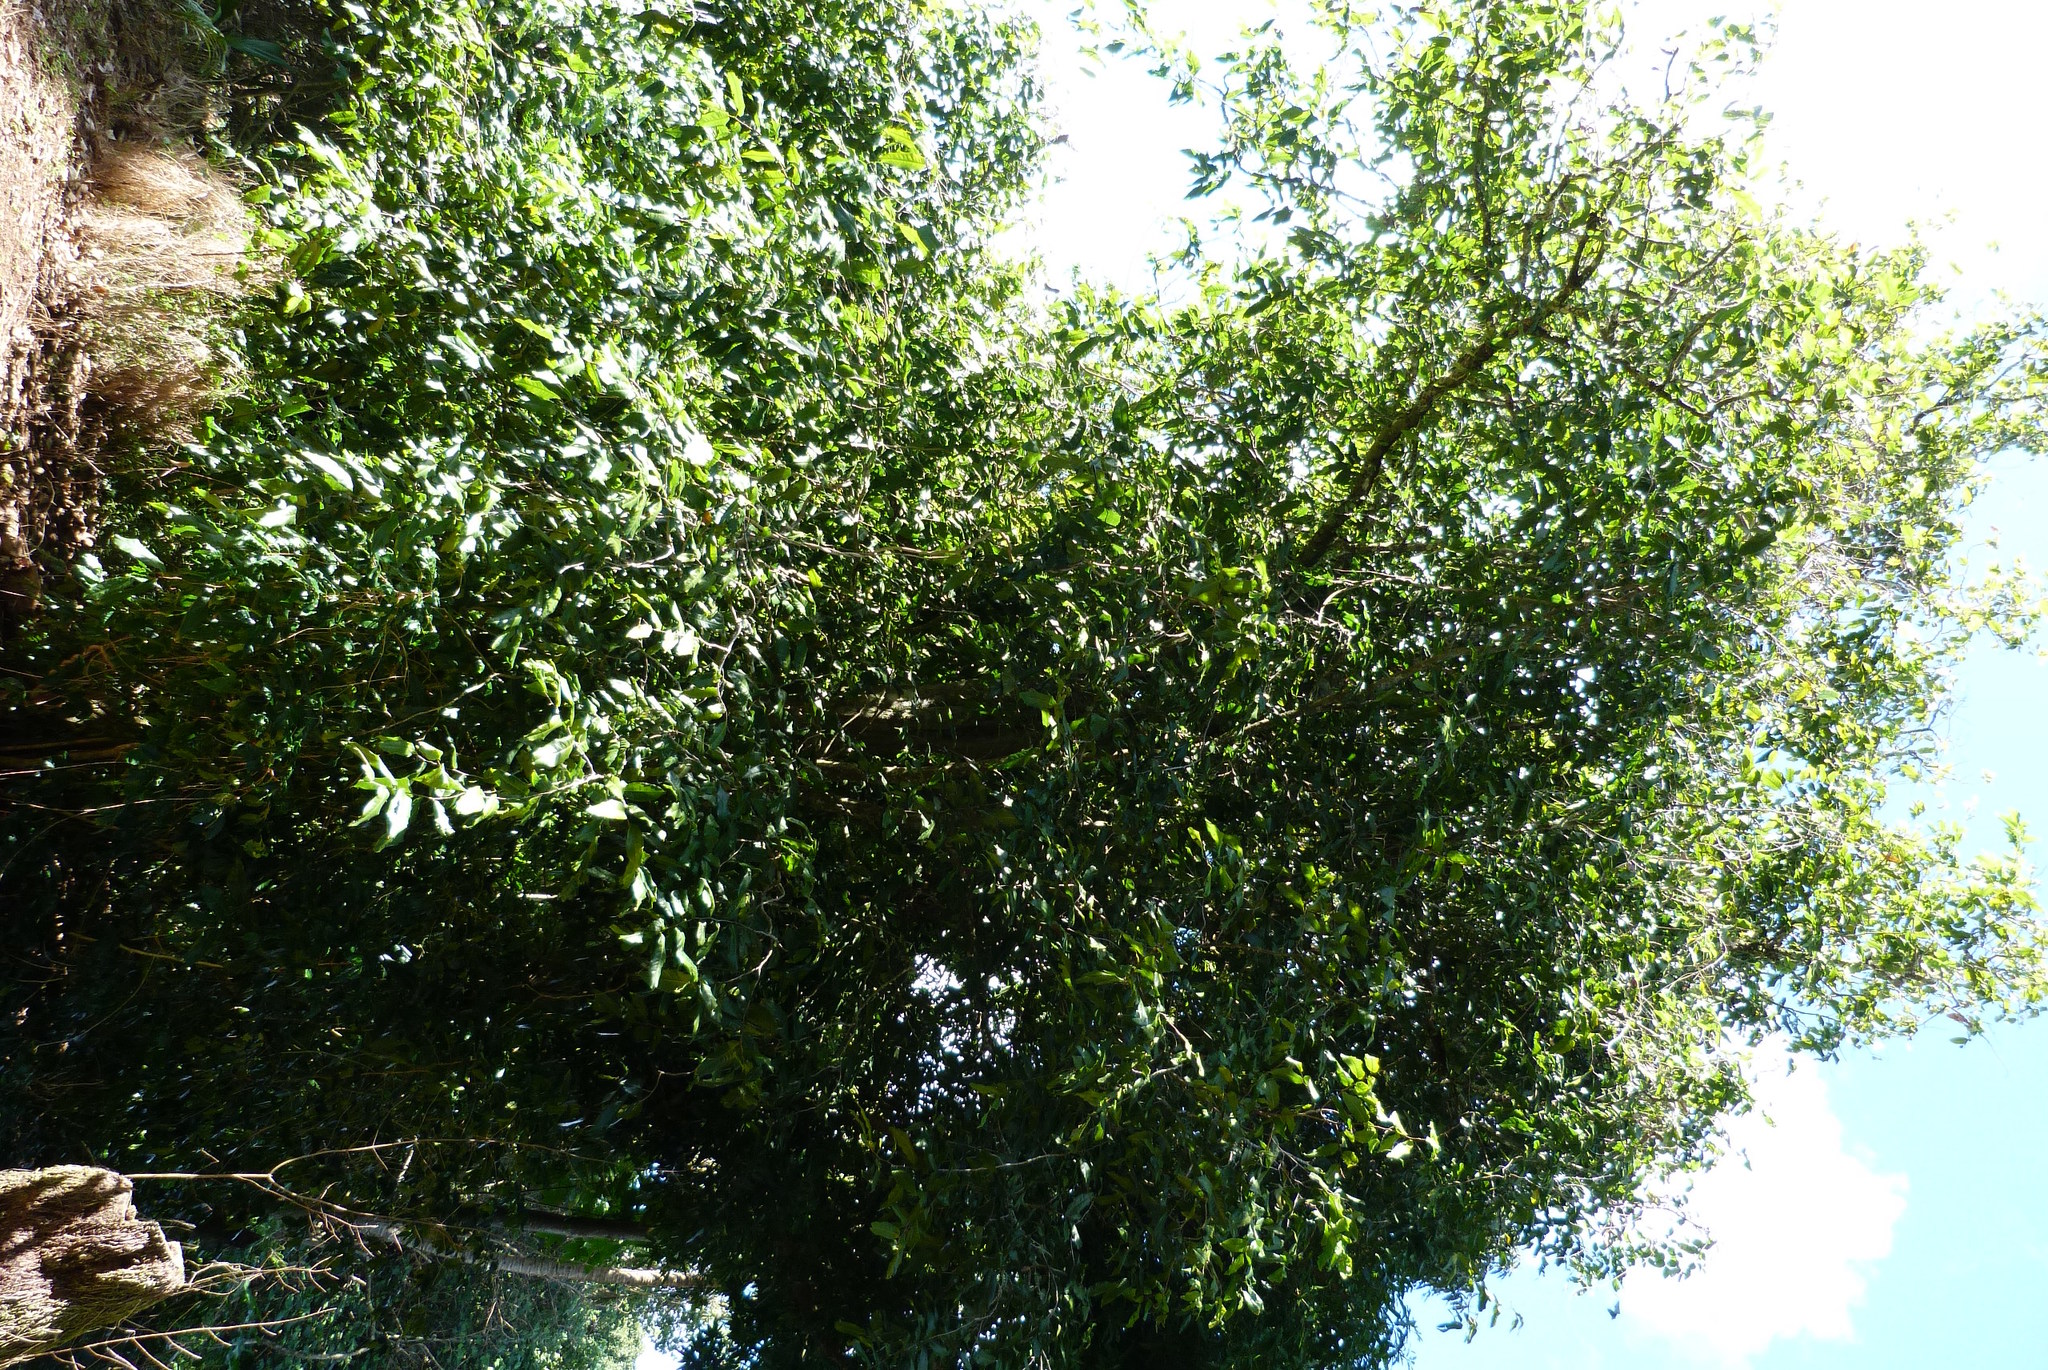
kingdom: Plantae
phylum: Tracheophyta
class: Magnoliopsida
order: Fabales
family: Fabaceae
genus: Inocarpus
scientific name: Inocarpus fagifer
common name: Polynesian chestnut
